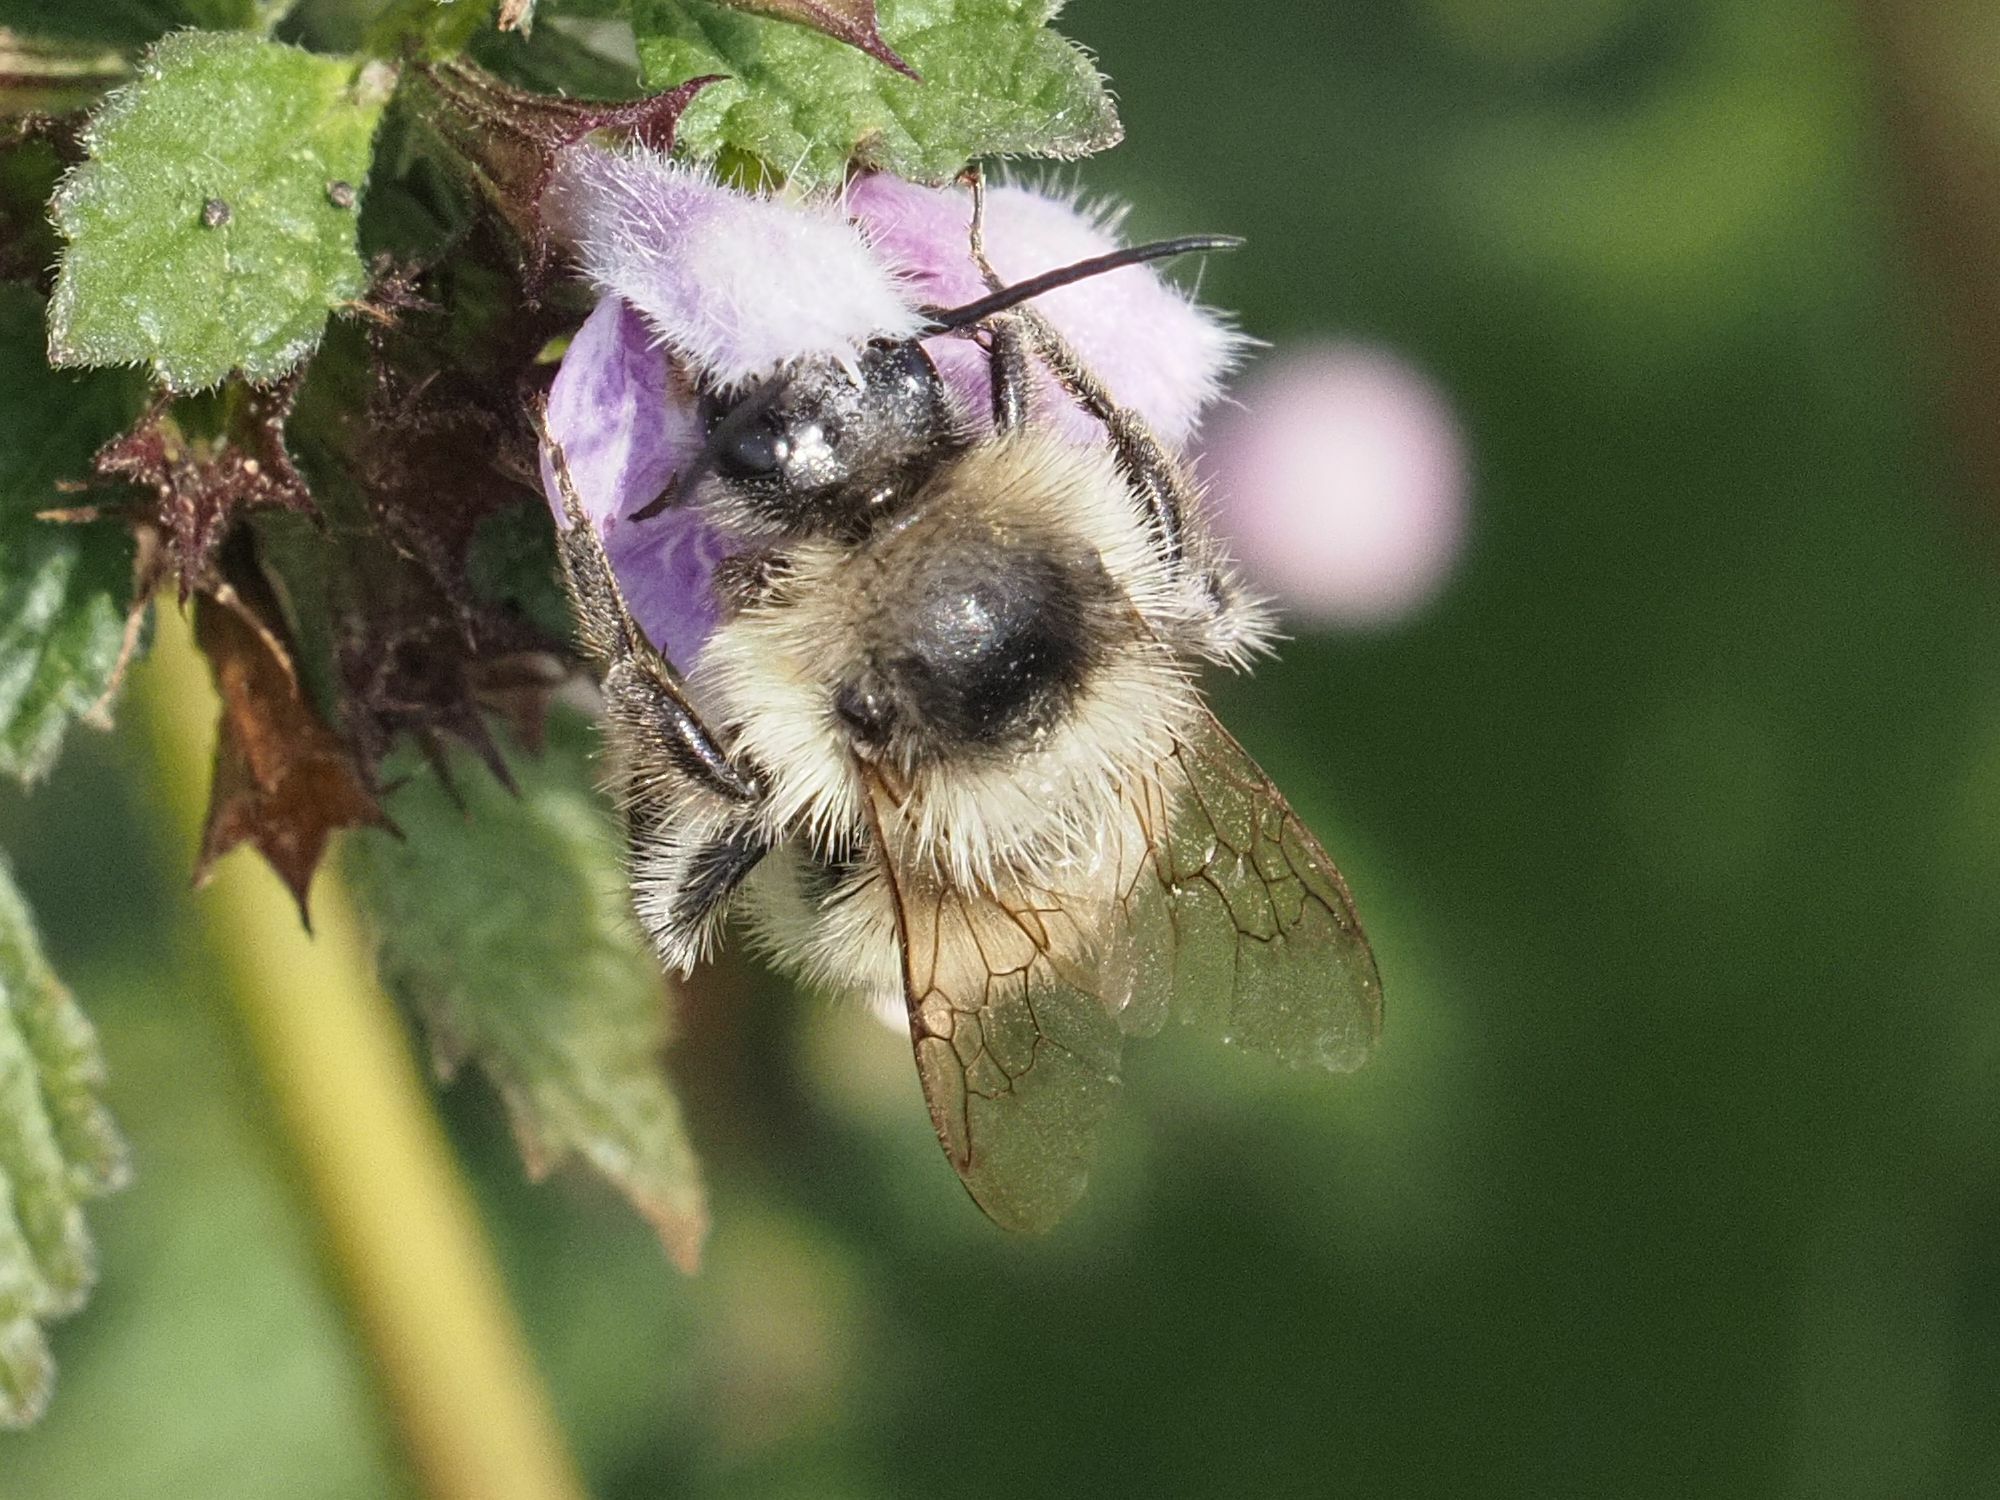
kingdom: Animalia
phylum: Arthropoda
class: Insecta
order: Hymenoptera
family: Apidae
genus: Bombus
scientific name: Bombus sylvarum
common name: Shrill carder bee
